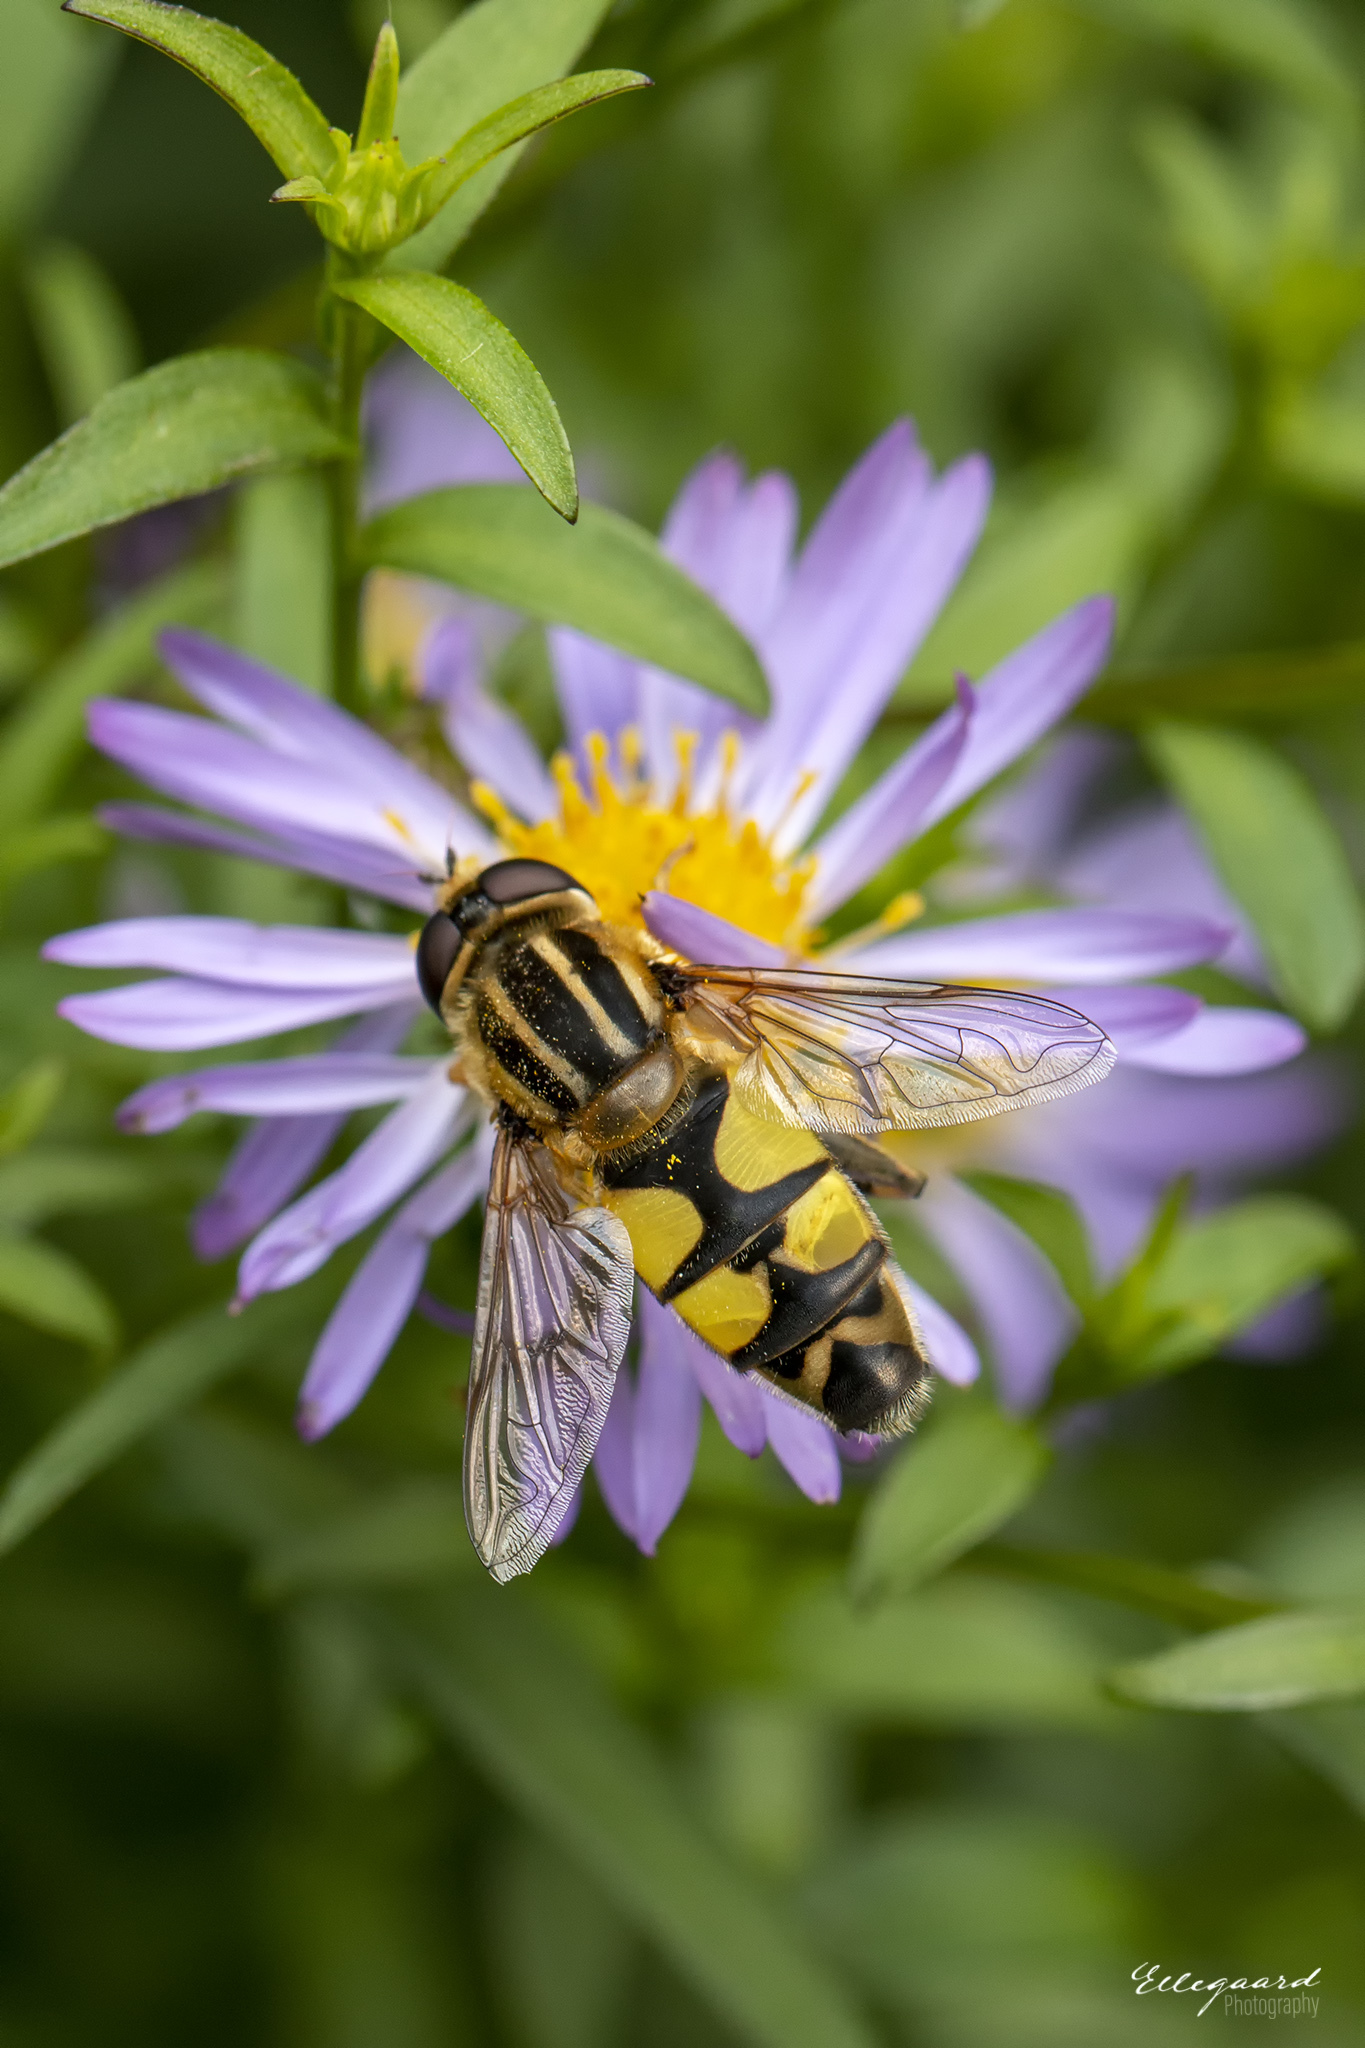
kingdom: Animalia
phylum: Arthropoda
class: Insecta
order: Diptera
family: Syrphidae
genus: Helophilus
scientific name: Helophilus trivittatus
